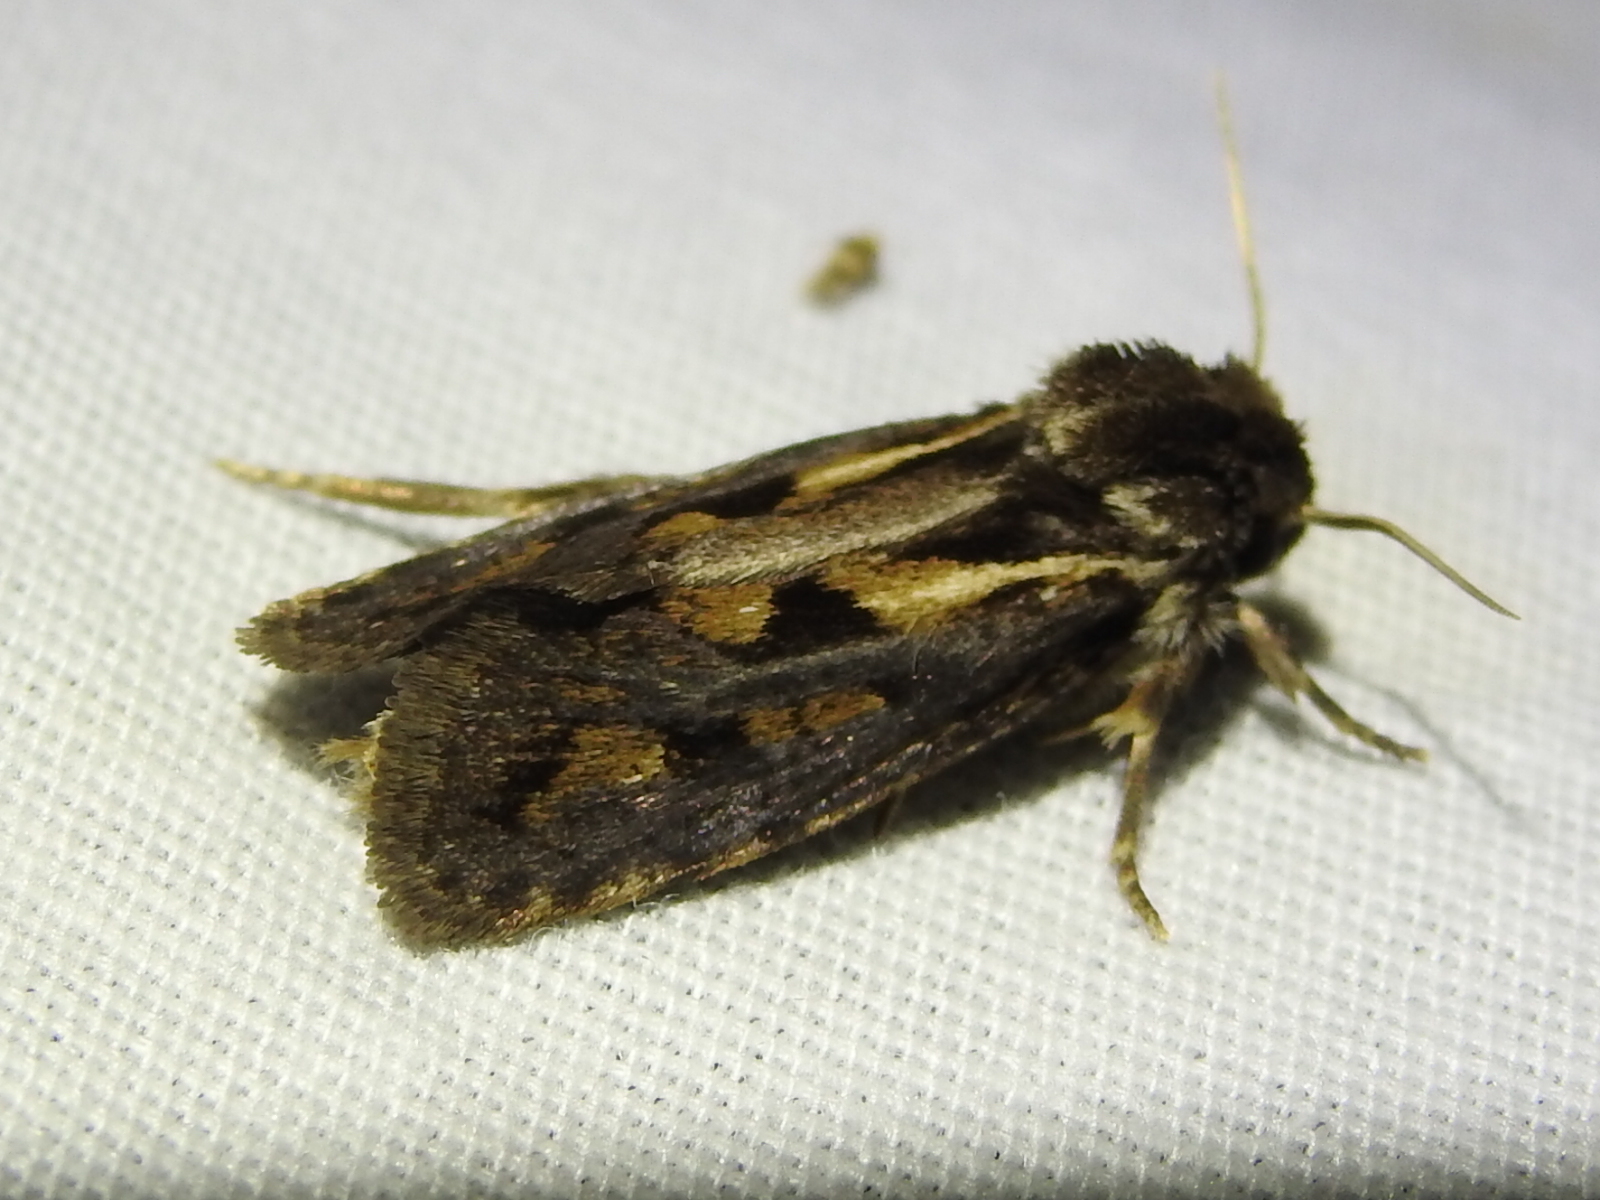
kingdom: Animalia
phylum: Arthropoda
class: Insecta
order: Lepidoptera
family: Tineidae
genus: Acrolophus
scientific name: Acrolophus popeanella
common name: Clemens' grass tubeworm moth
